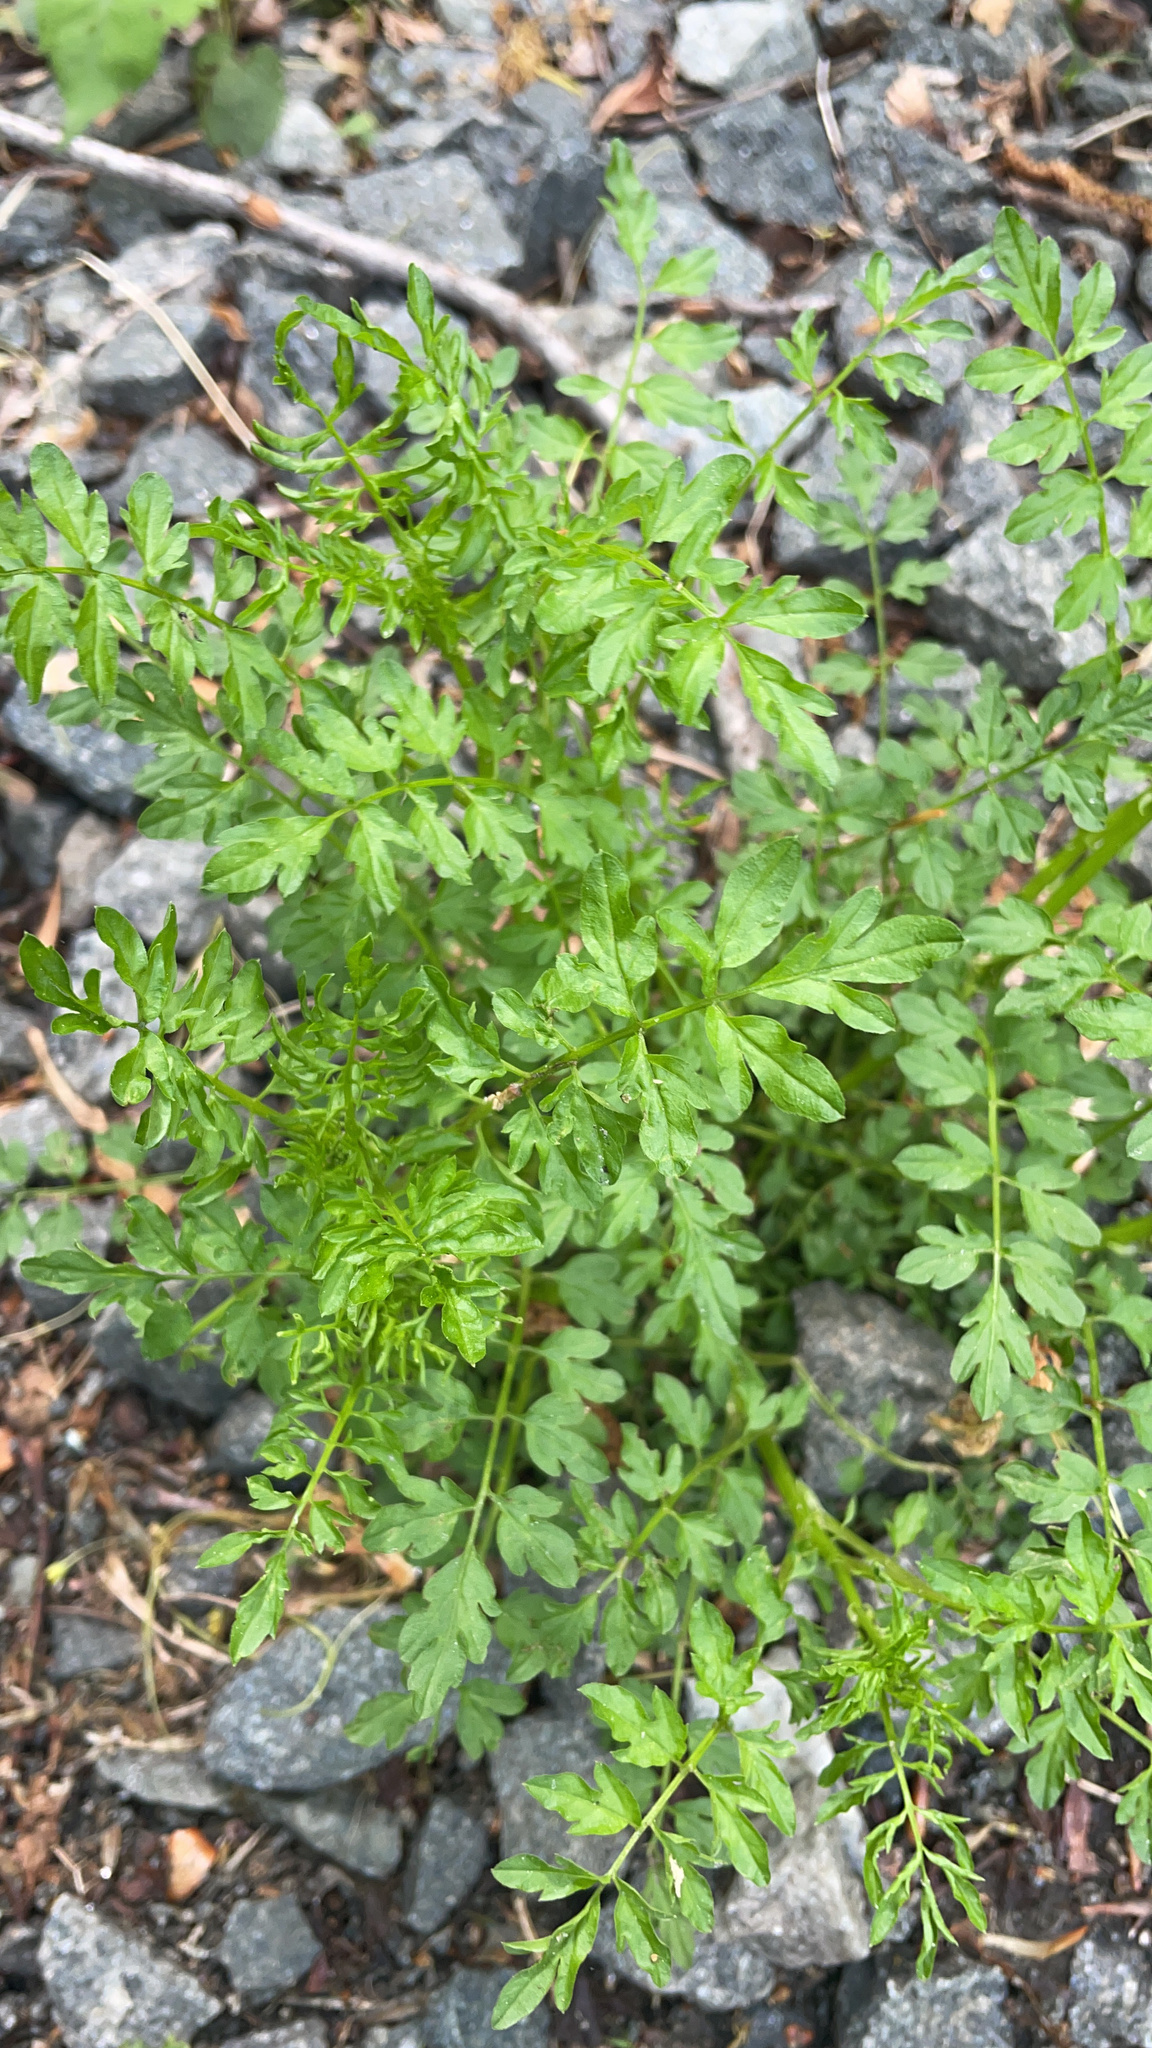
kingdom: Plantae
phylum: Tracheophyta
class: Magnoliopsida
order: Brassicales
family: Brassicaceae
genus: Cardamine
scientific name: Cardamine impatiens
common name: Narrow-leaved bitter-cress
